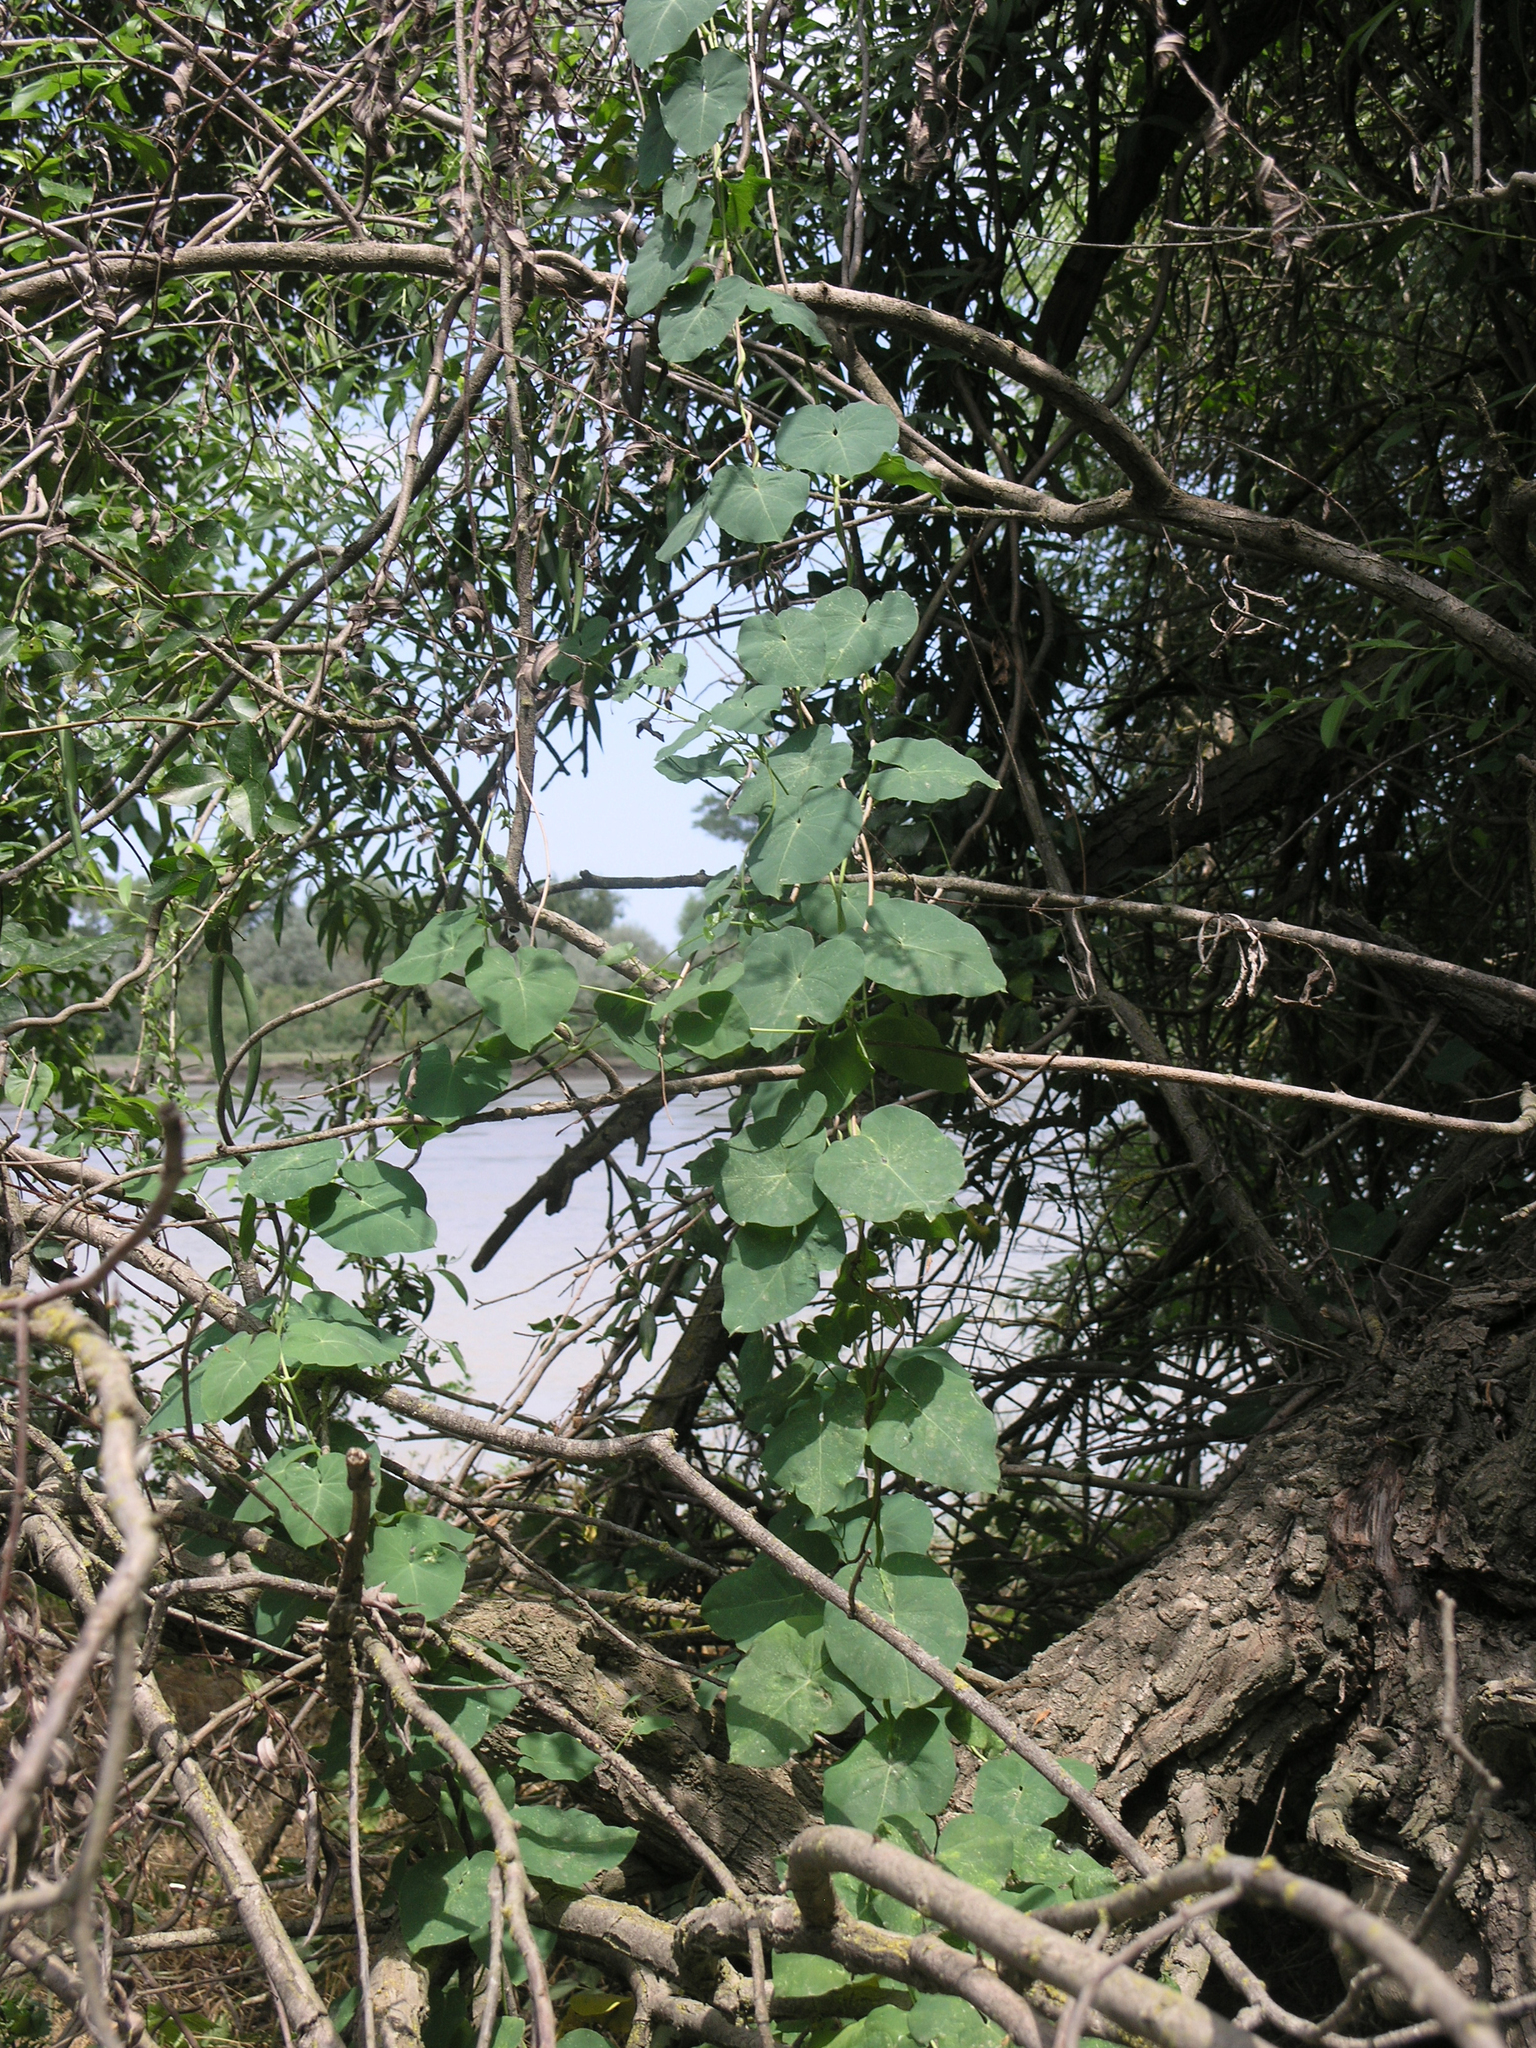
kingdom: Plantae
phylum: Tracheophyta
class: Magnoliopsida
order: Gentianales
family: Apocynaceae
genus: Cynanchum
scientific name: Cynanchum acutum
